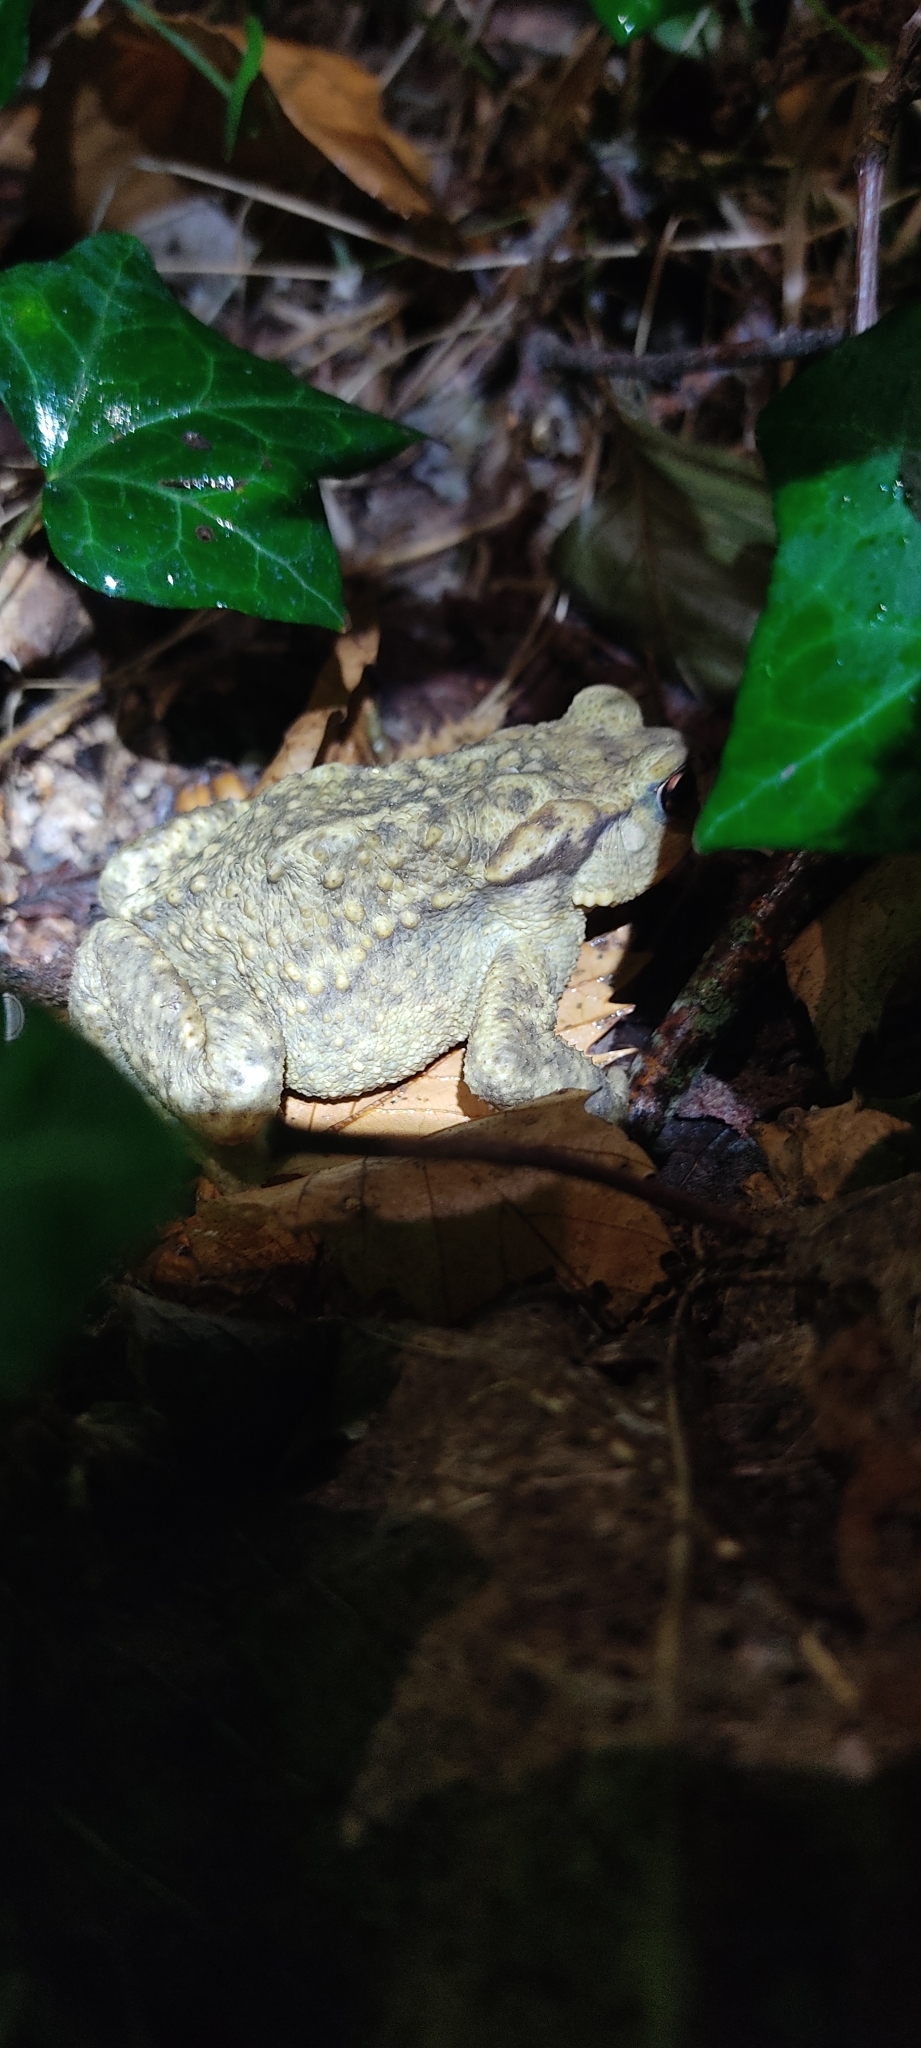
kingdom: Animalia
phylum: Chordata
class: Amphibia
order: Anura
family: Bufonidae
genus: Bufo
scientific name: Bufo spinosus
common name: Western common toad
